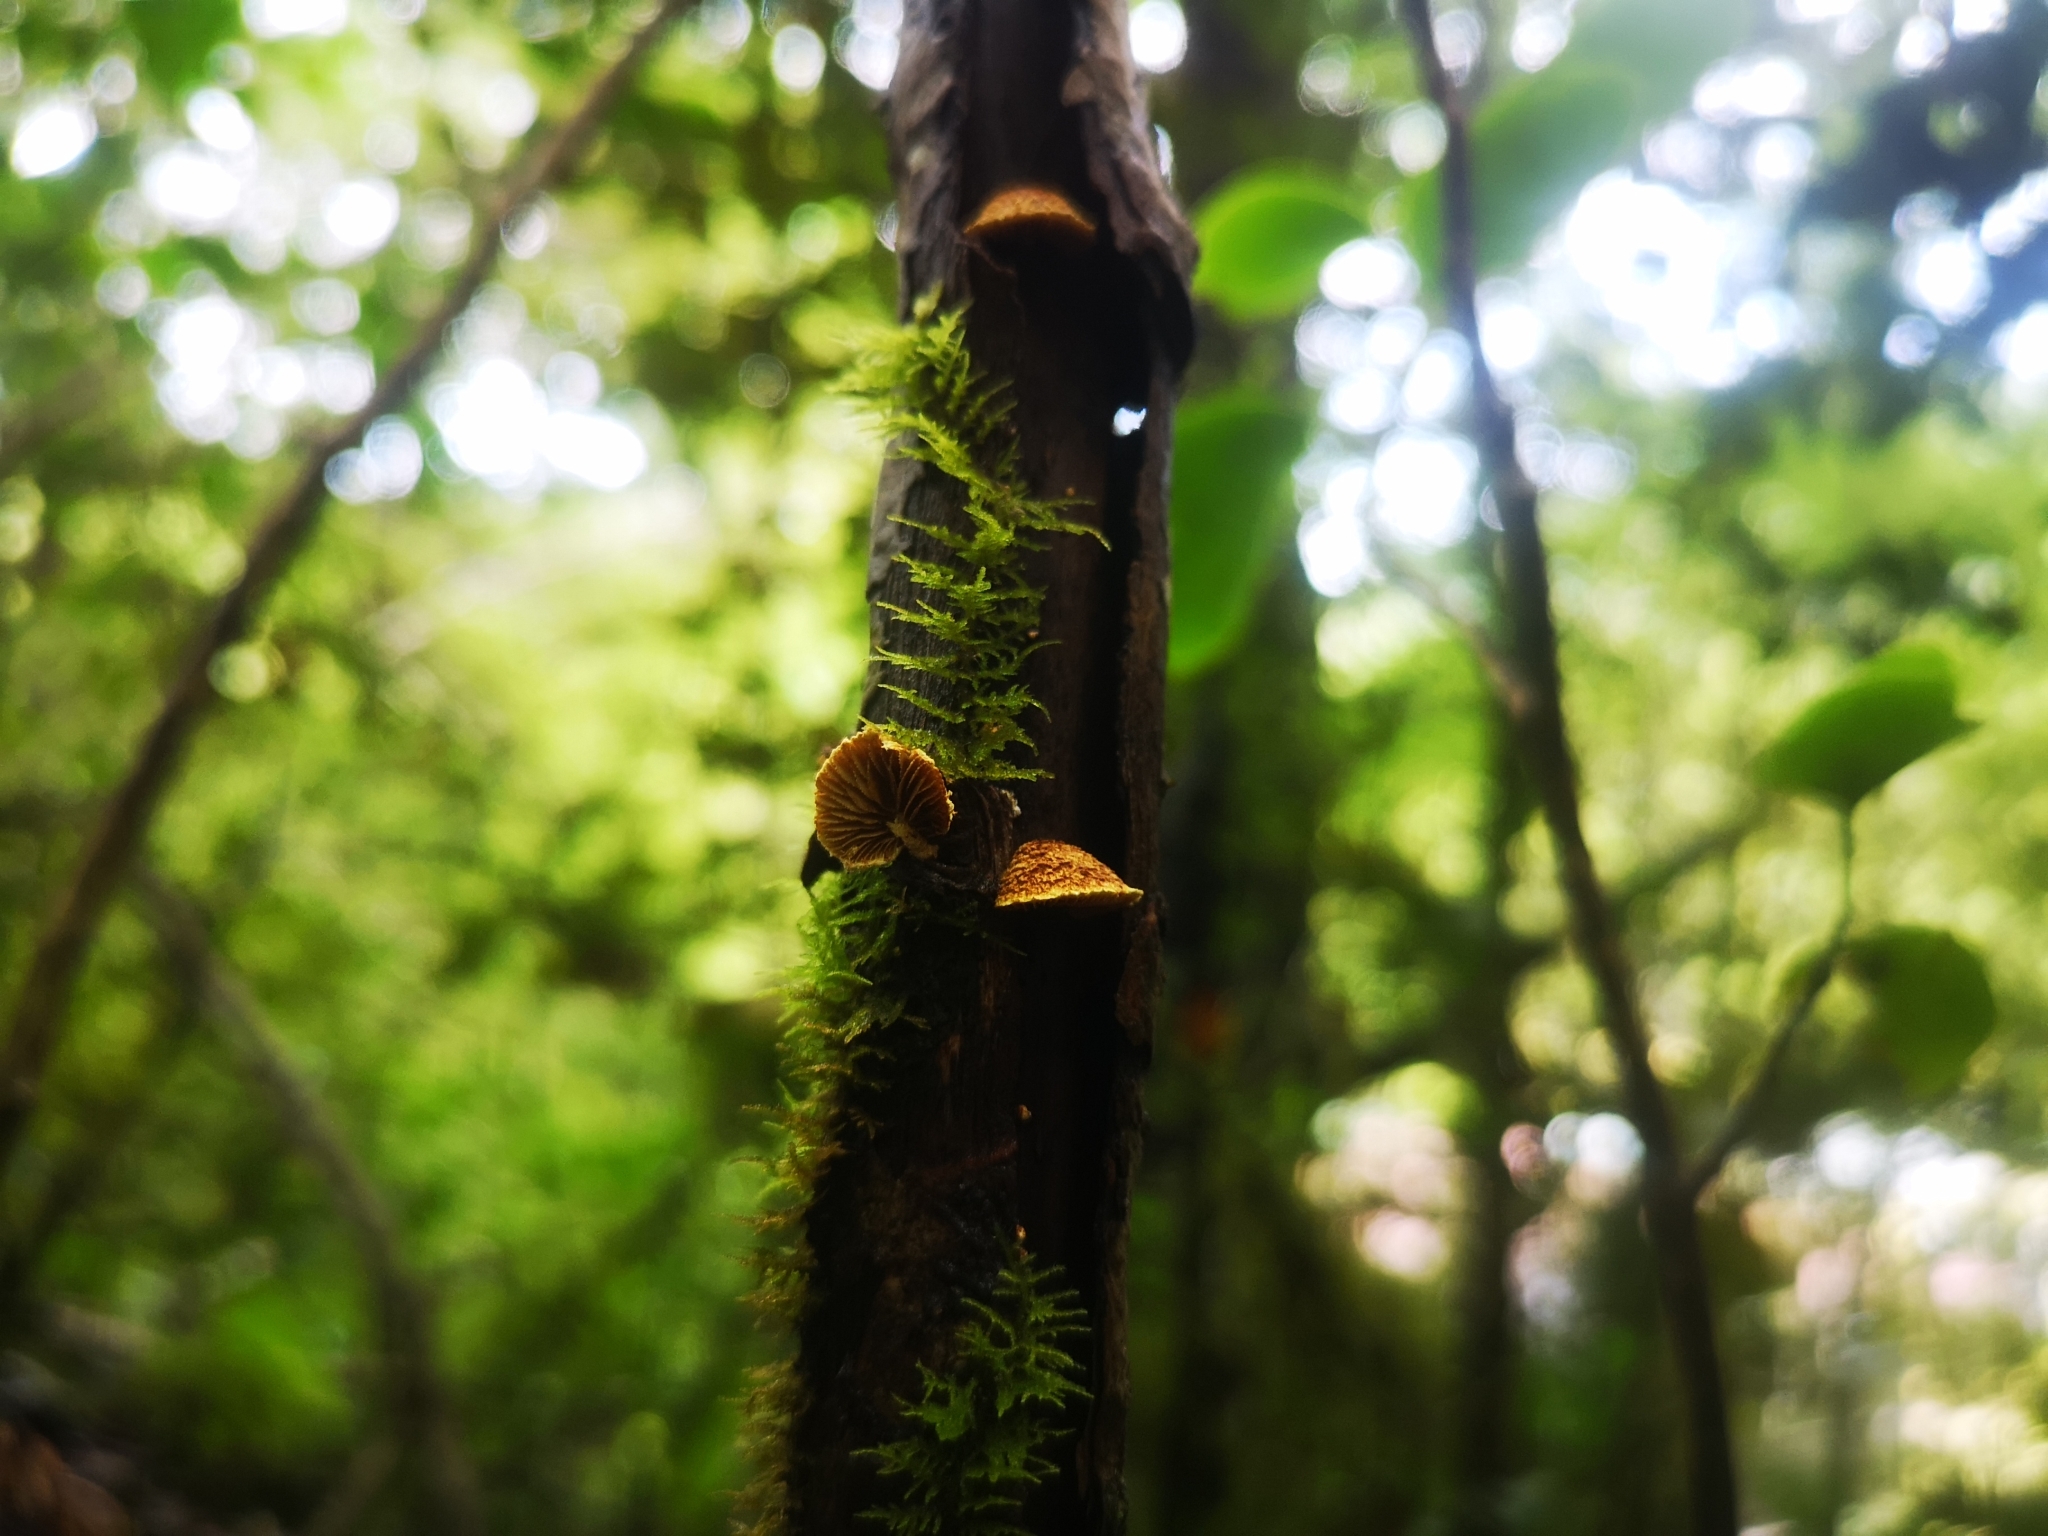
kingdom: Fungi
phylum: Basidiomycota
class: Agaricomycetes
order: Agaricales
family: Crepidotaceae
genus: Pleuroflammula
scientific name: Pleuroflammula praestans
